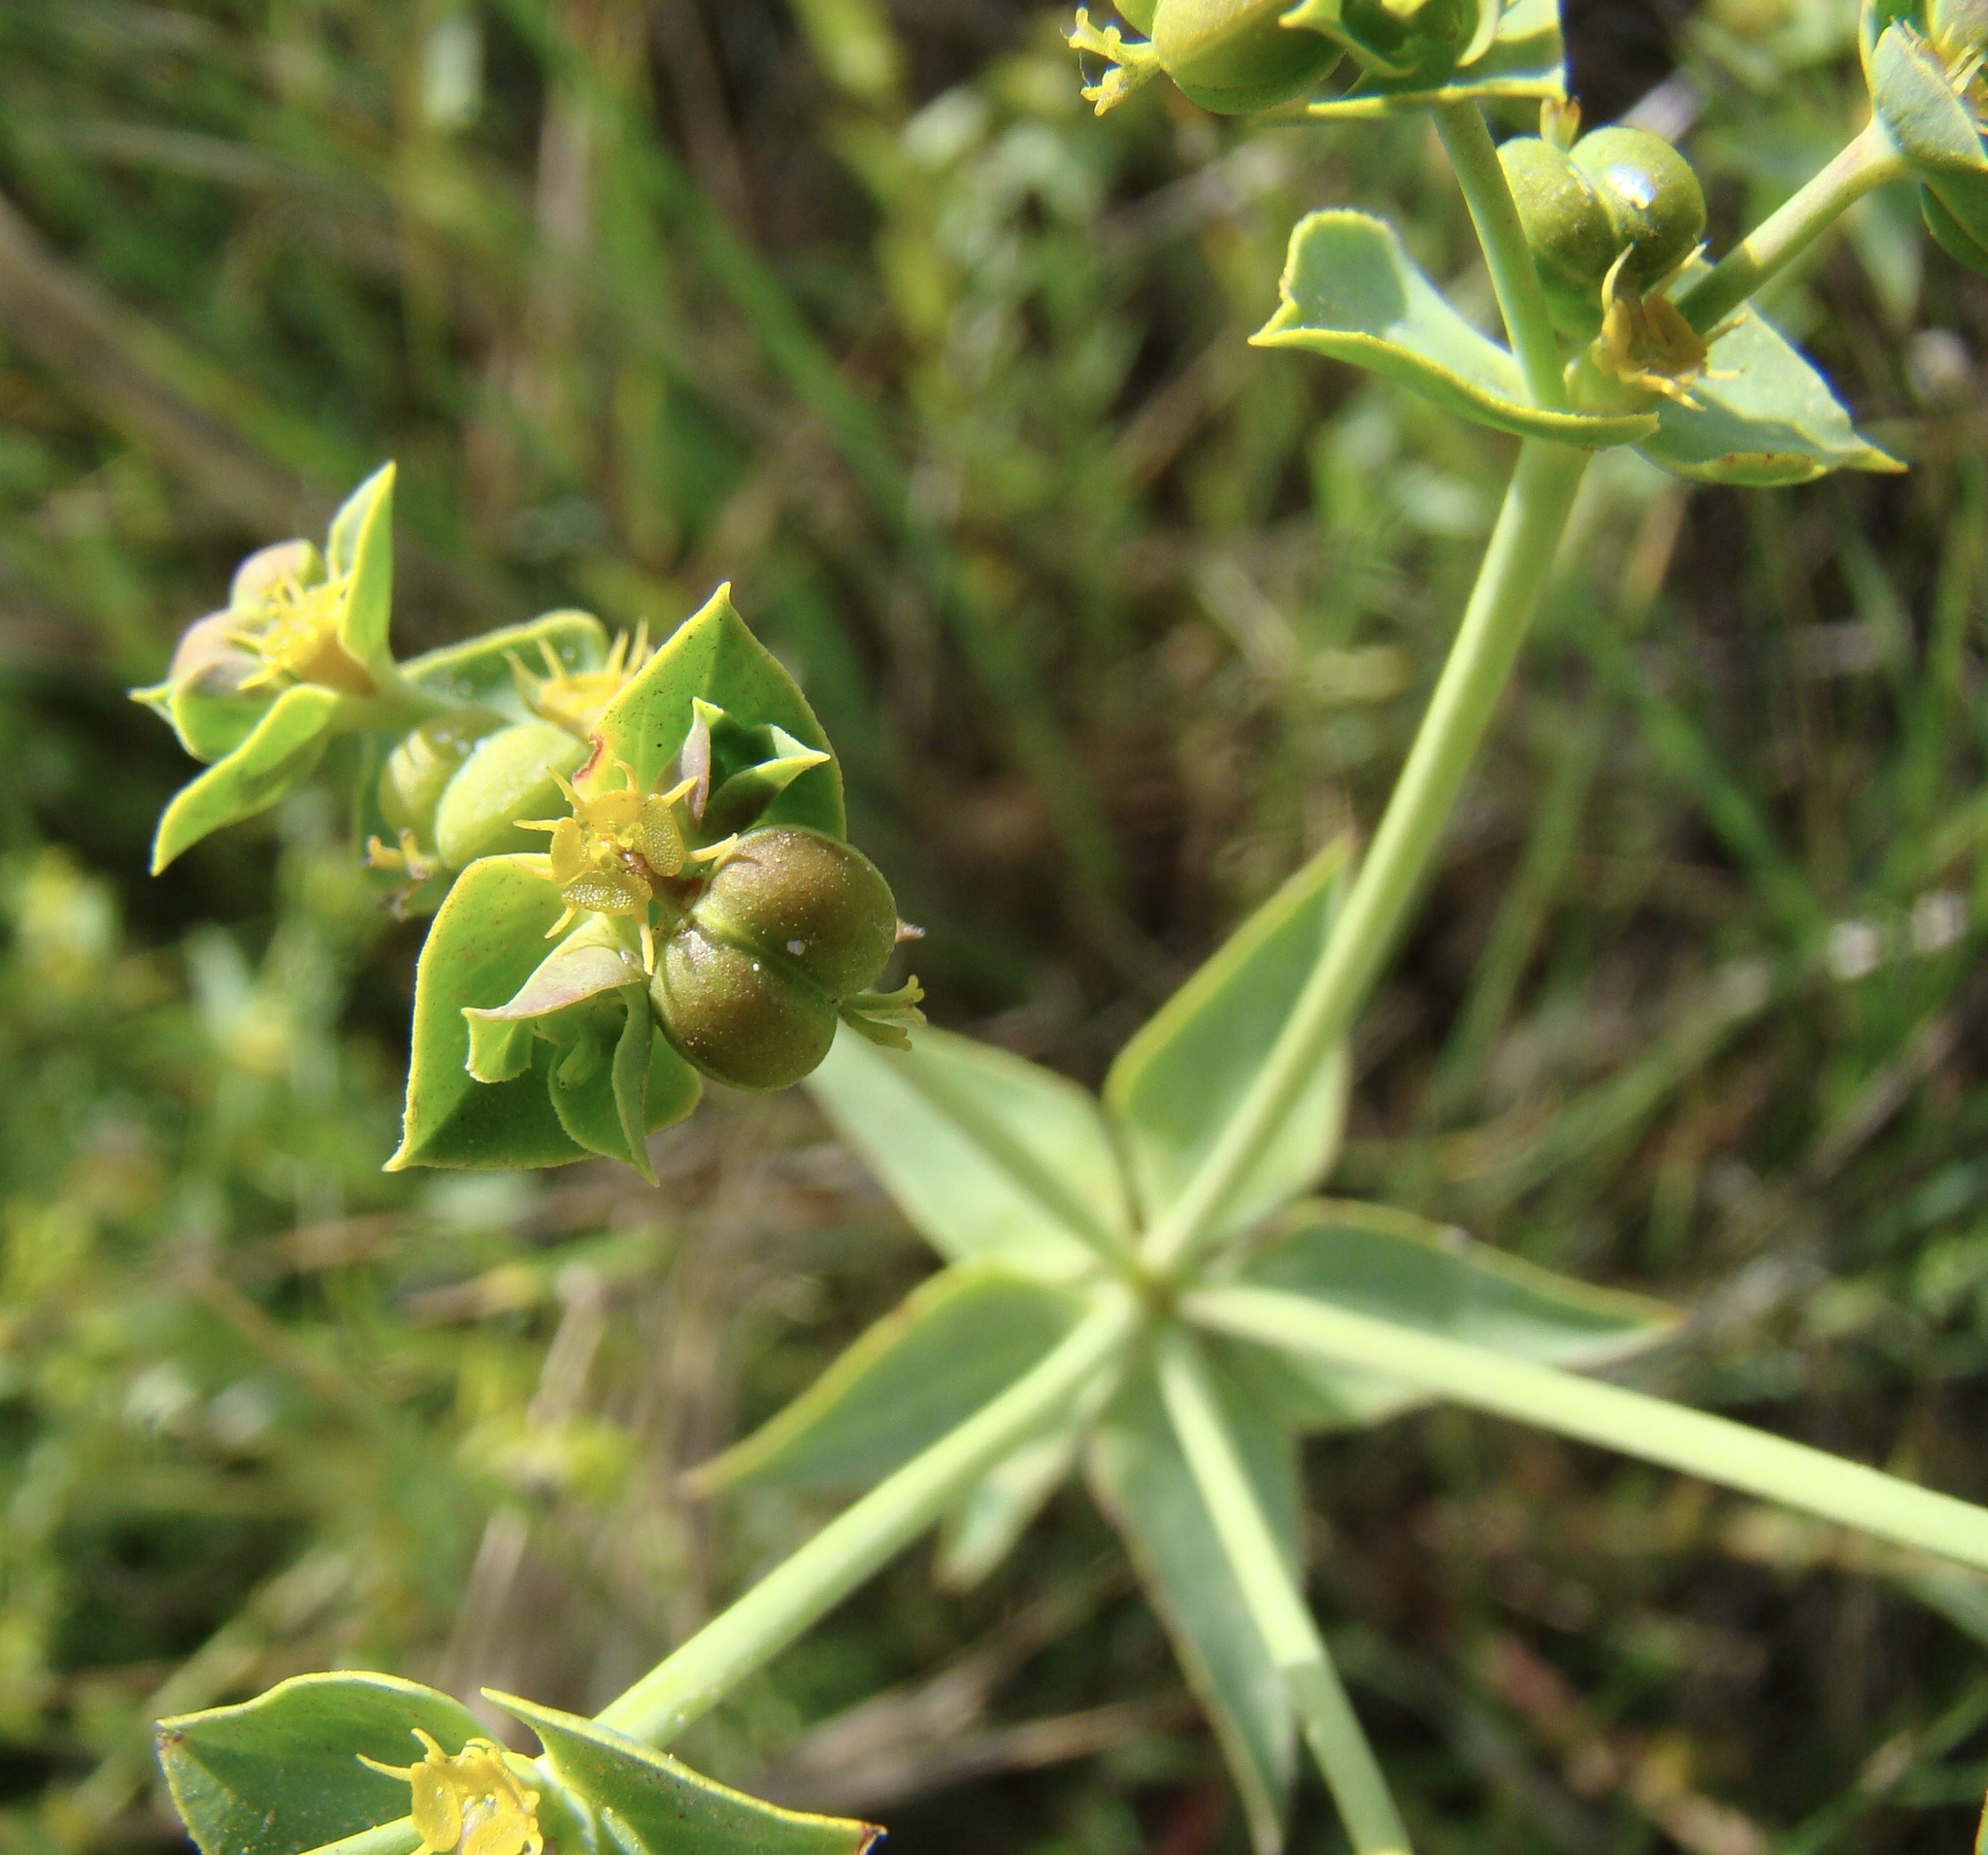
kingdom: Plantae
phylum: Tracheophyta
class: Magnoliopsida
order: Malpighiales
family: Euphorbiaceae
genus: Euphorbia
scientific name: Euphorbia terracina
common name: Geraldton carnation weed
